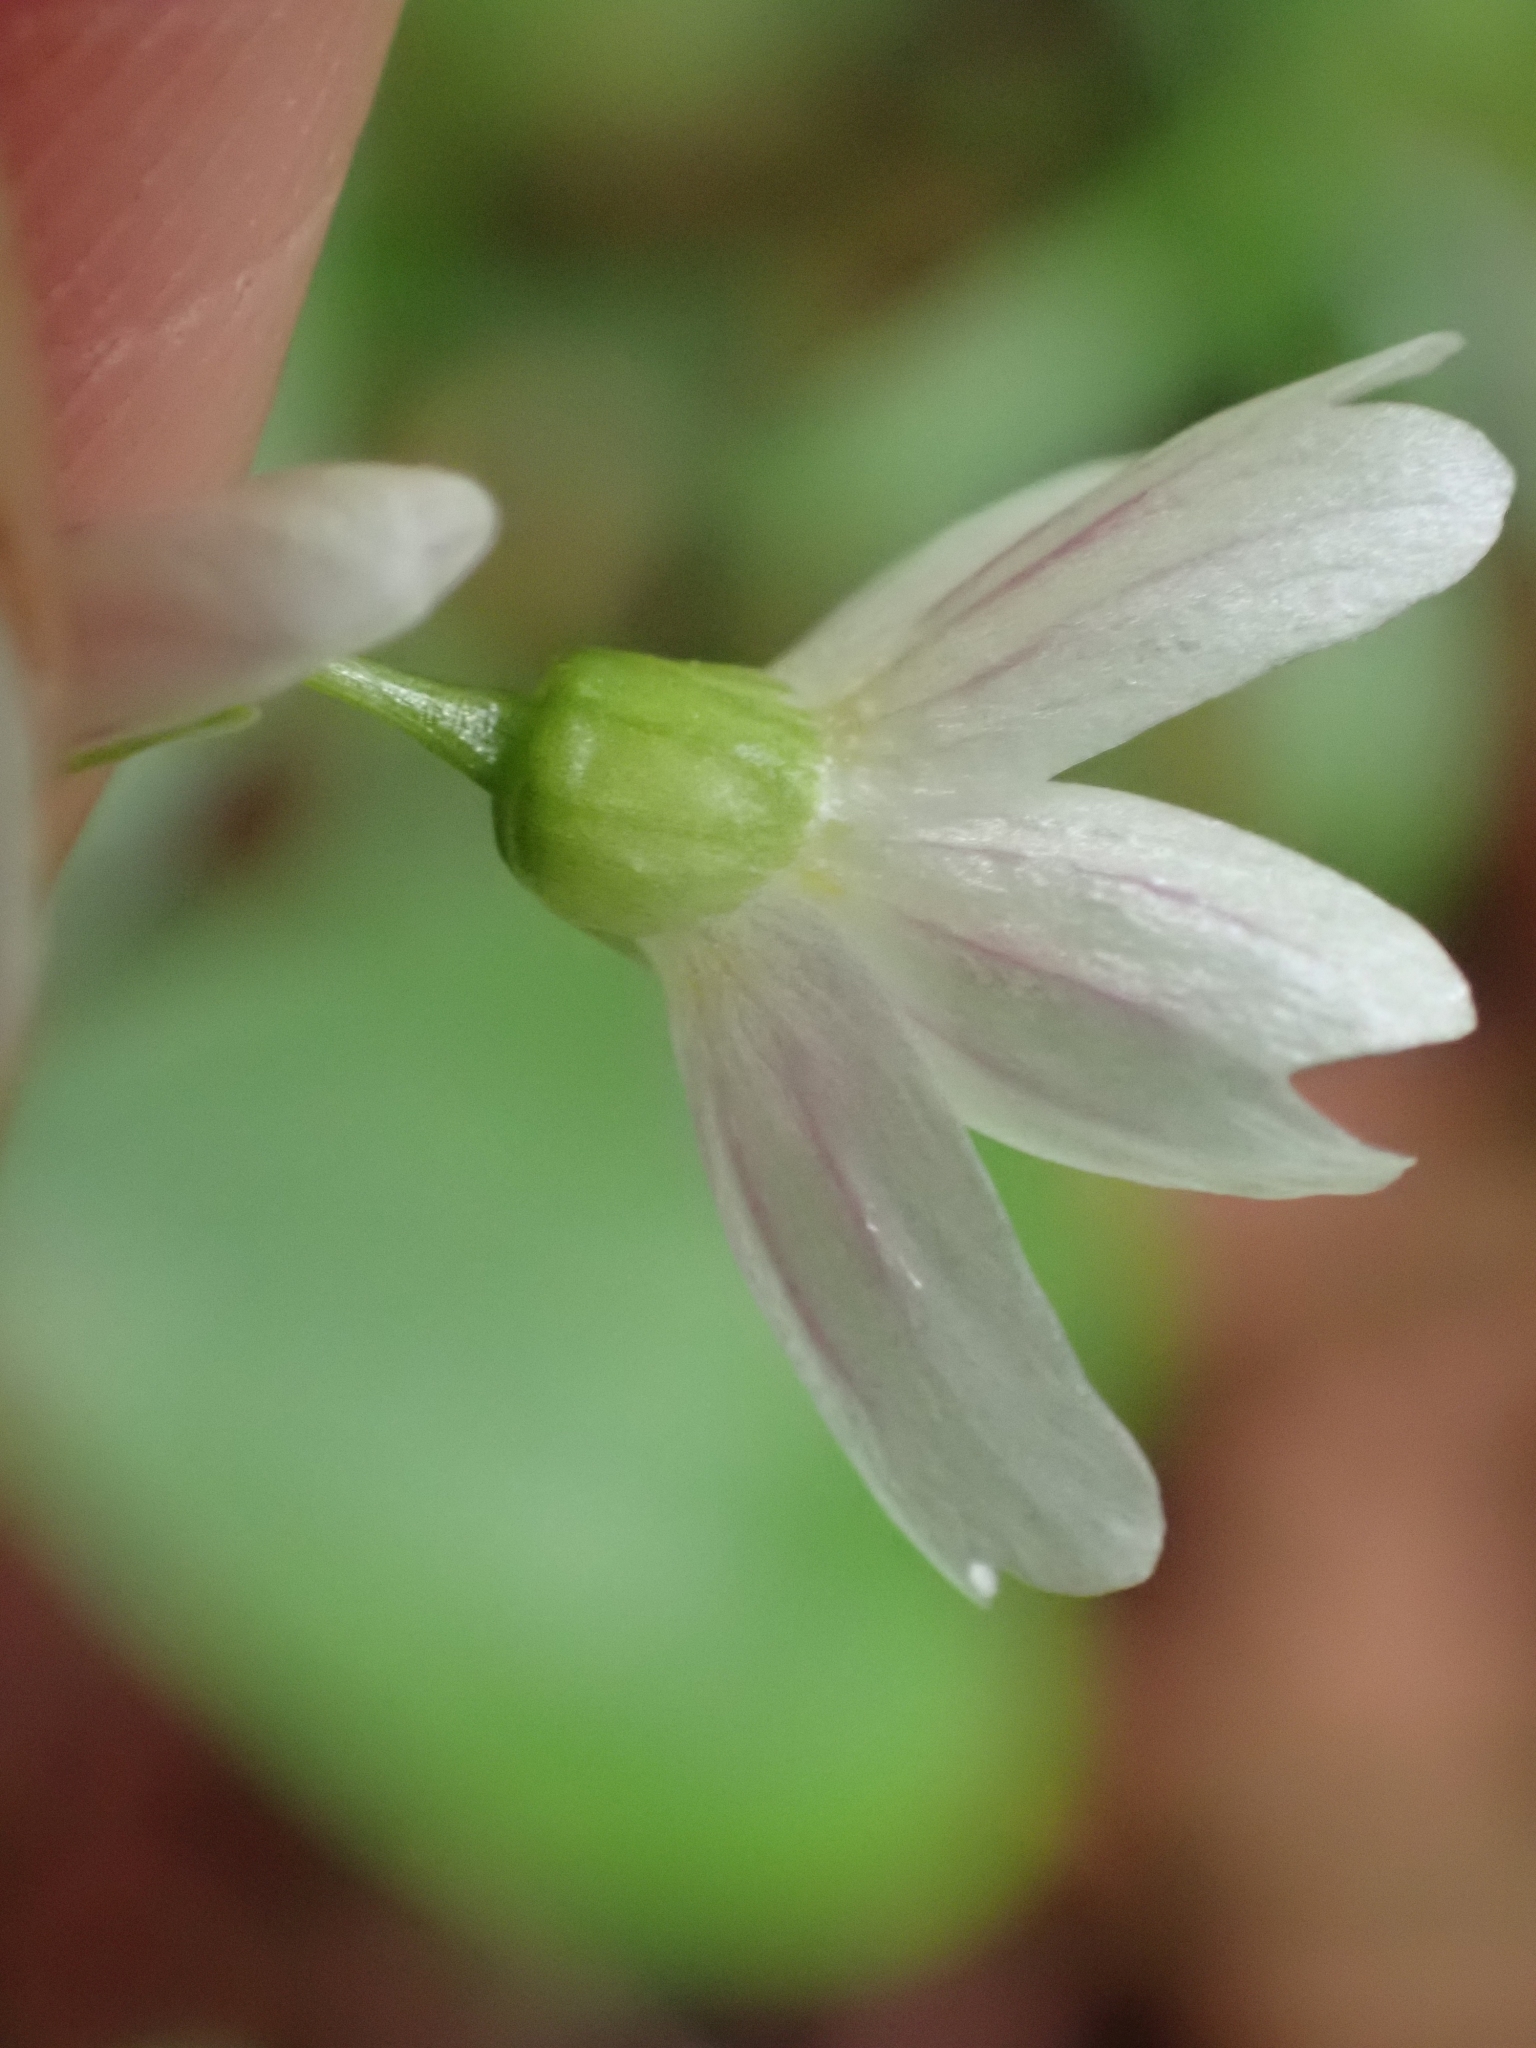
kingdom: Plantae
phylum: Tracheophyta
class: Magnoliopsida
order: Caryophyllales
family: Montiaceae
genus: Claytonia
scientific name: Claytonia sibirica
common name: Pink purslane
